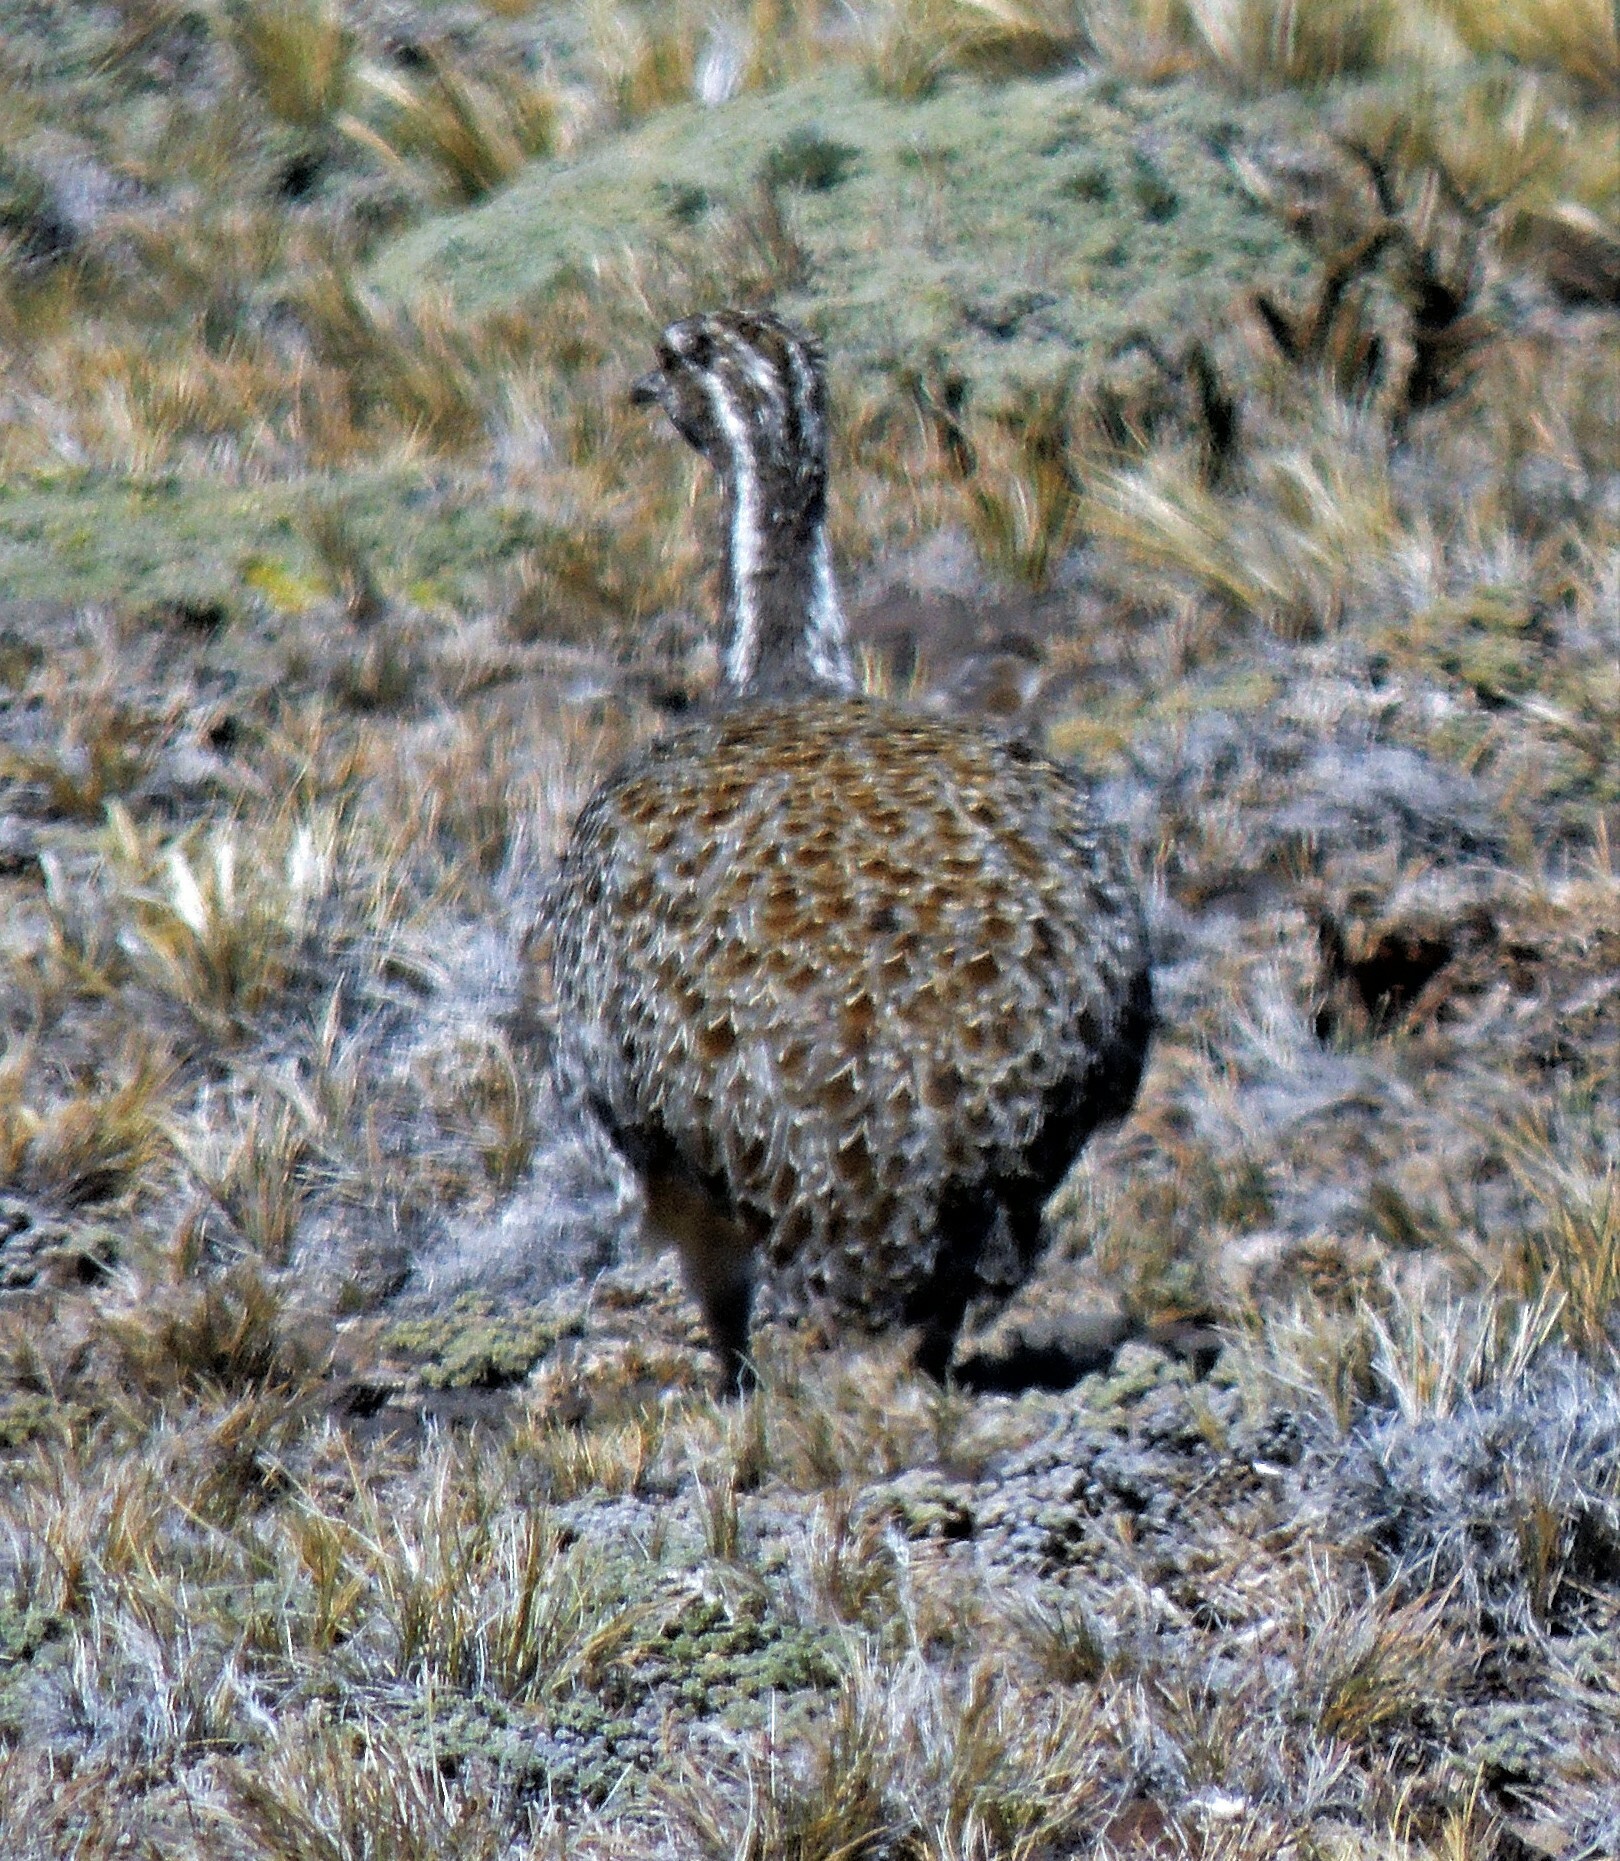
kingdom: Animalia
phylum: Chordata
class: Aves
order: Tinamiformes
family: Tinamidae
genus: Tinamotis
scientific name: Tinamotis ingoufi
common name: Patagonian tinamou
